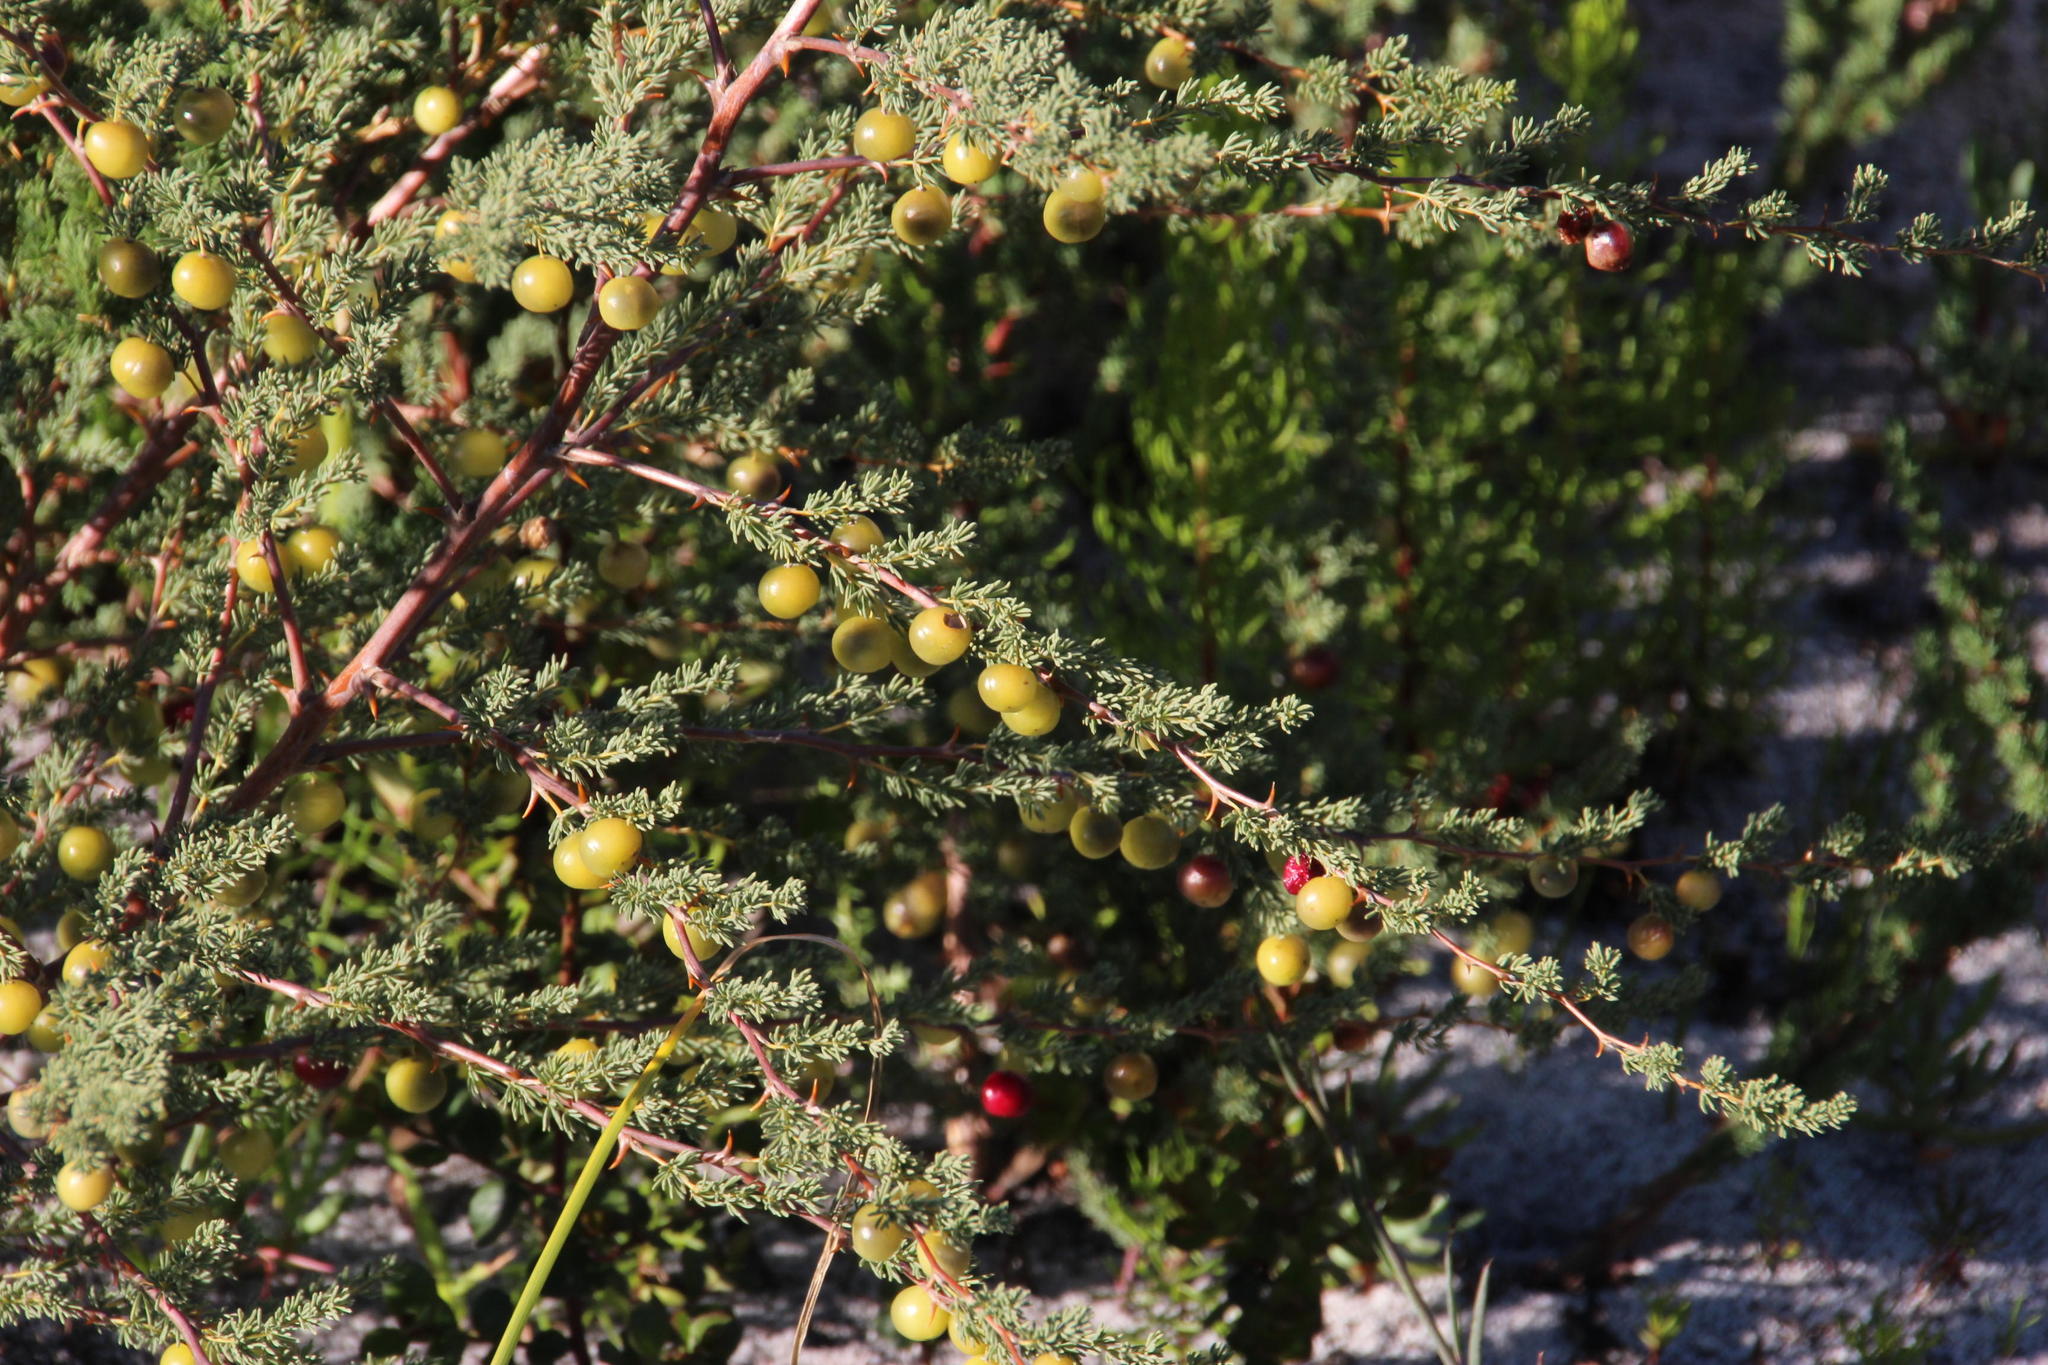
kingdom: Plantae
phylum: Tracheophyta
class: Liliopsida
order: Asparagales
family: Asparagaceae
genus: Asparagus
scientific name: Asparagus rubicundus
